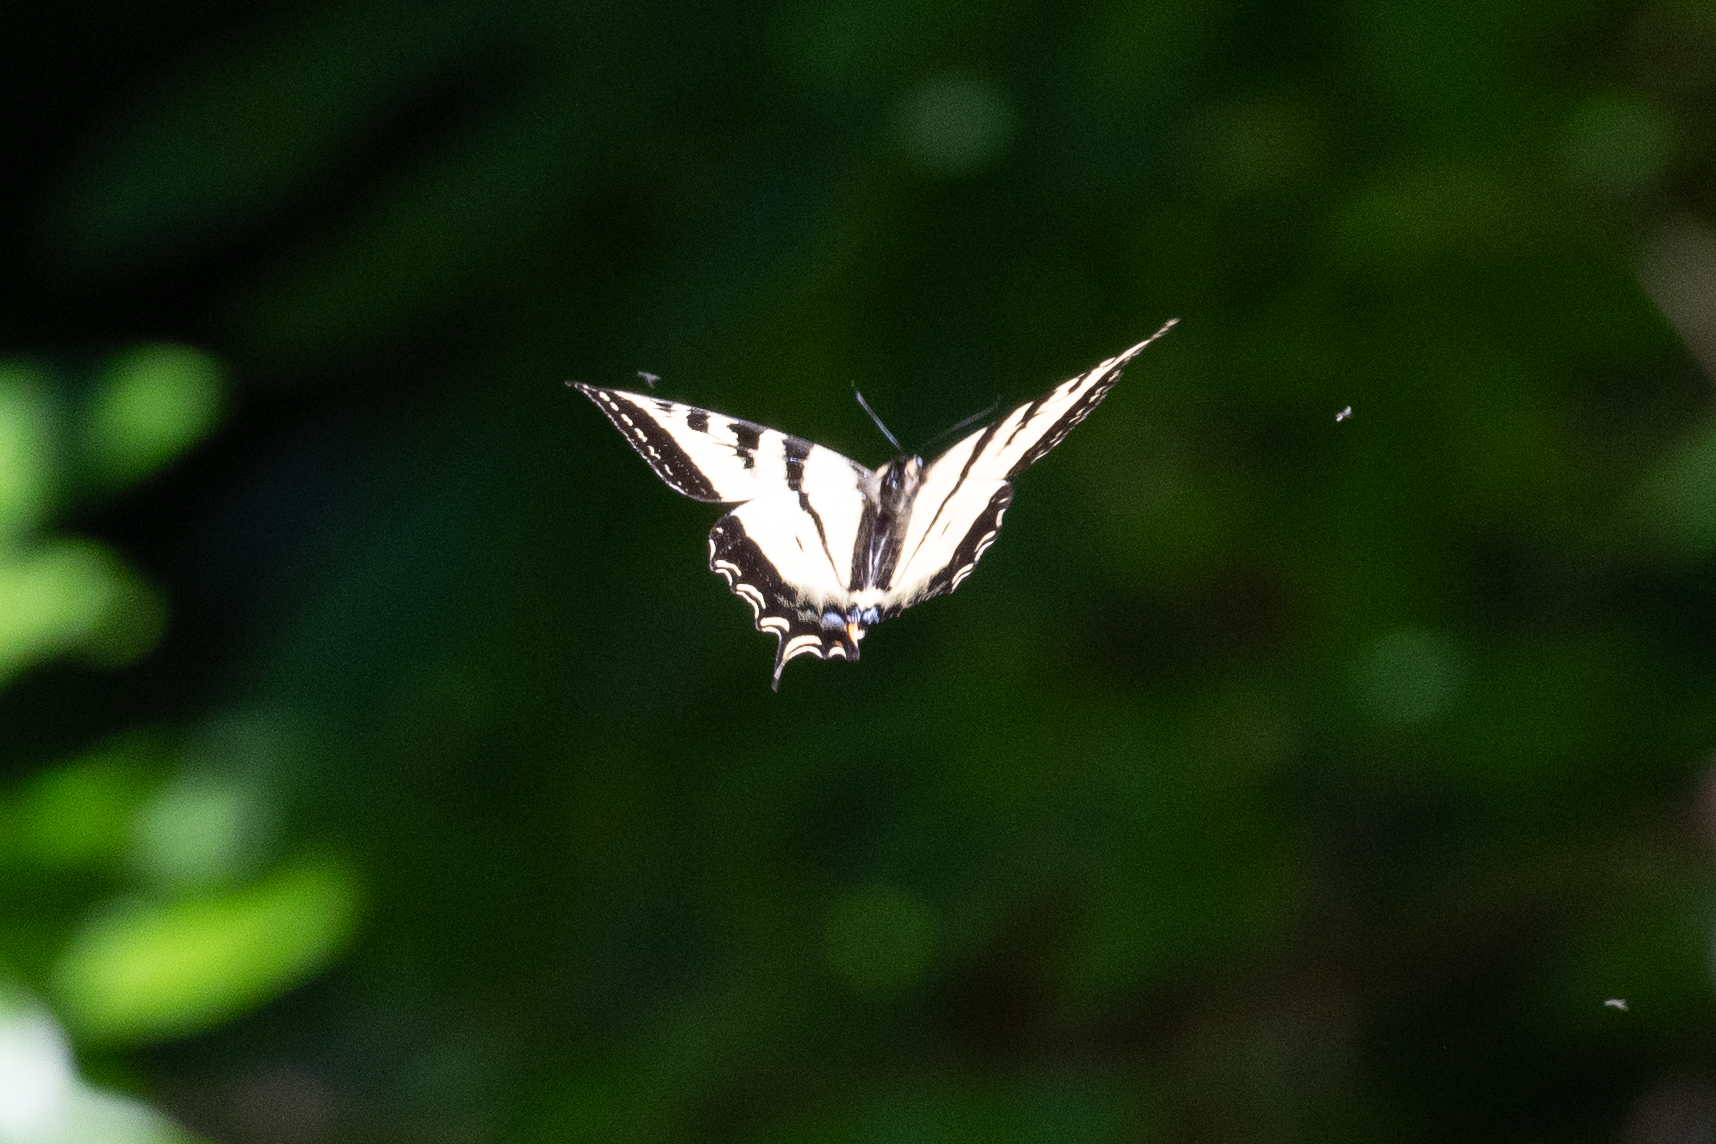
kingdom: Animalia
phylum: Arthropoda
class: Insecta
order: Lepidoptera
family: Papilionidae
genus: Papilio
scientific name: Papilio rutulus
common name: Western tiger swallowtail
